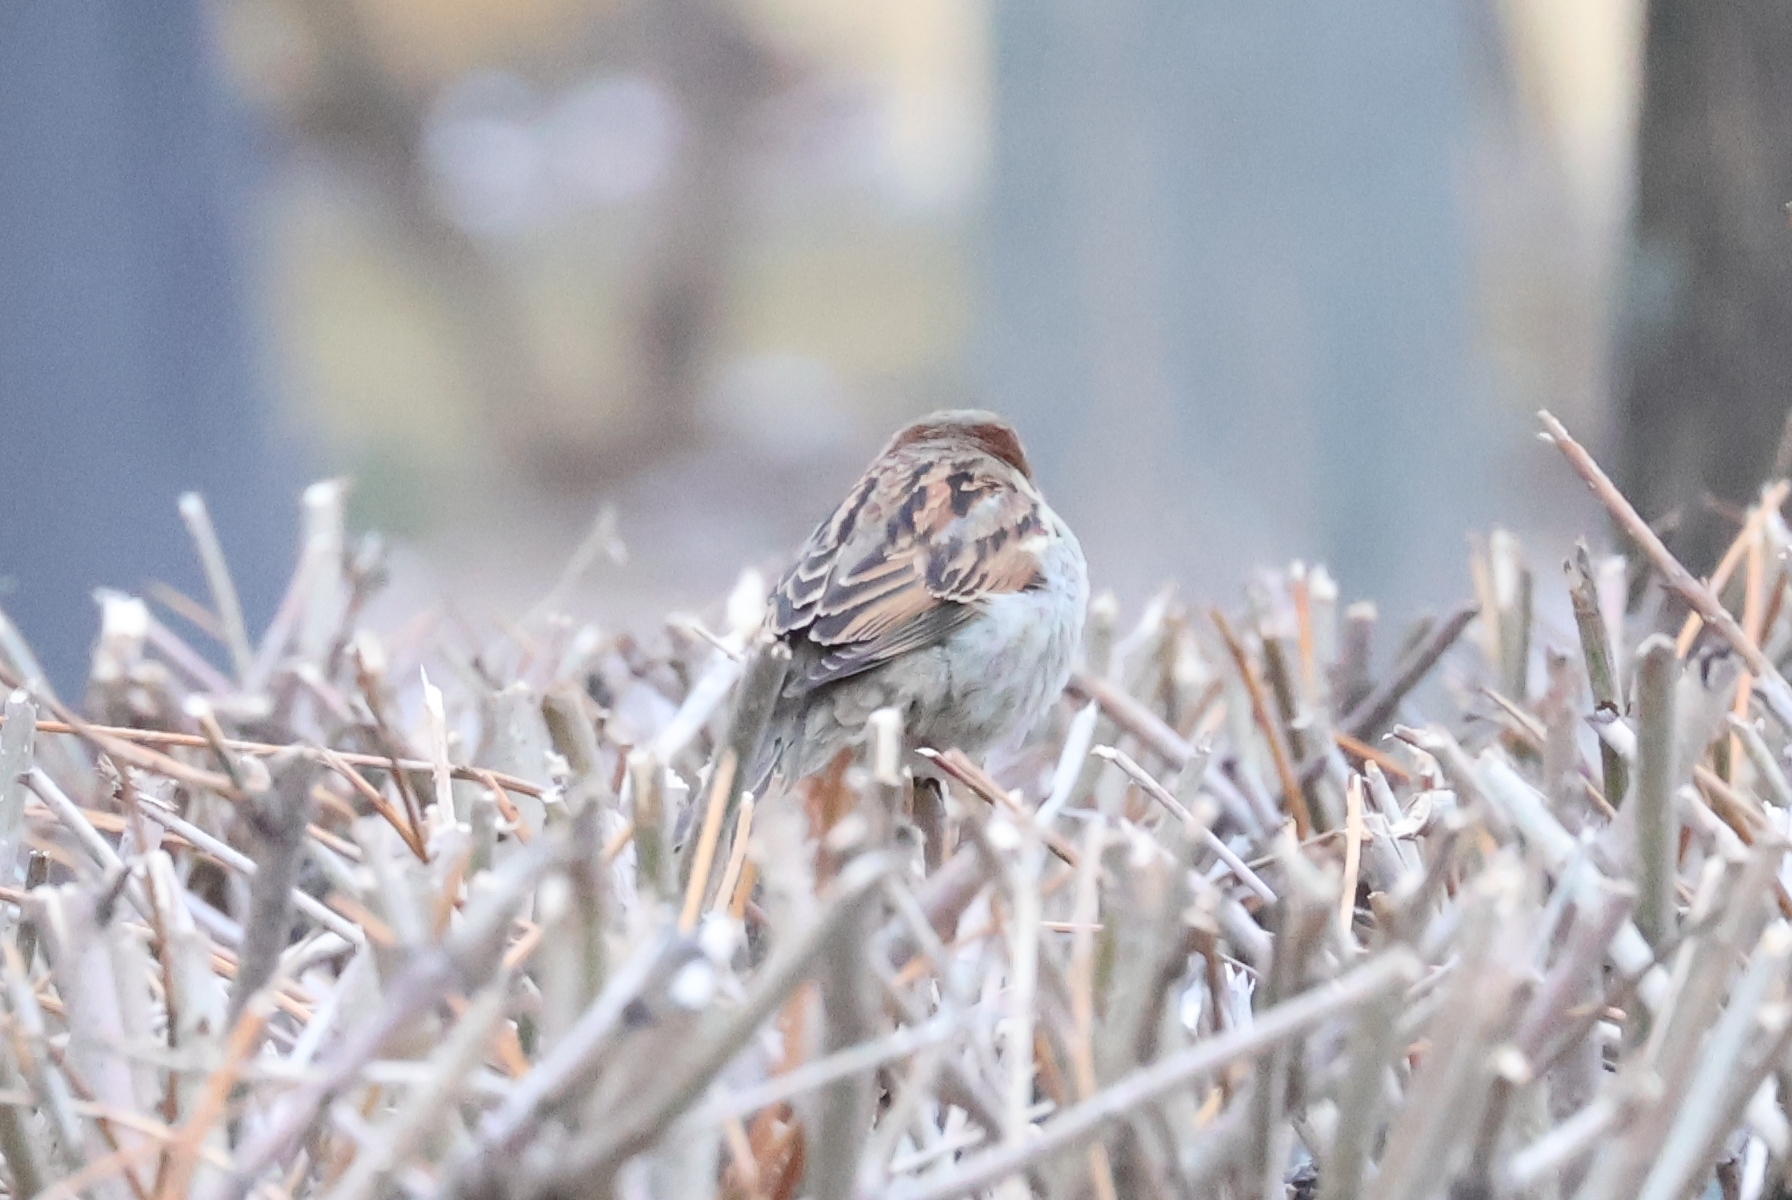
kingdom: Animalia
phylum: Chordata
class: Aves
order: Passeriformes
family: Passeridae
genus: Passer
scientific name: Passer domesticus
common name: House sparrow
